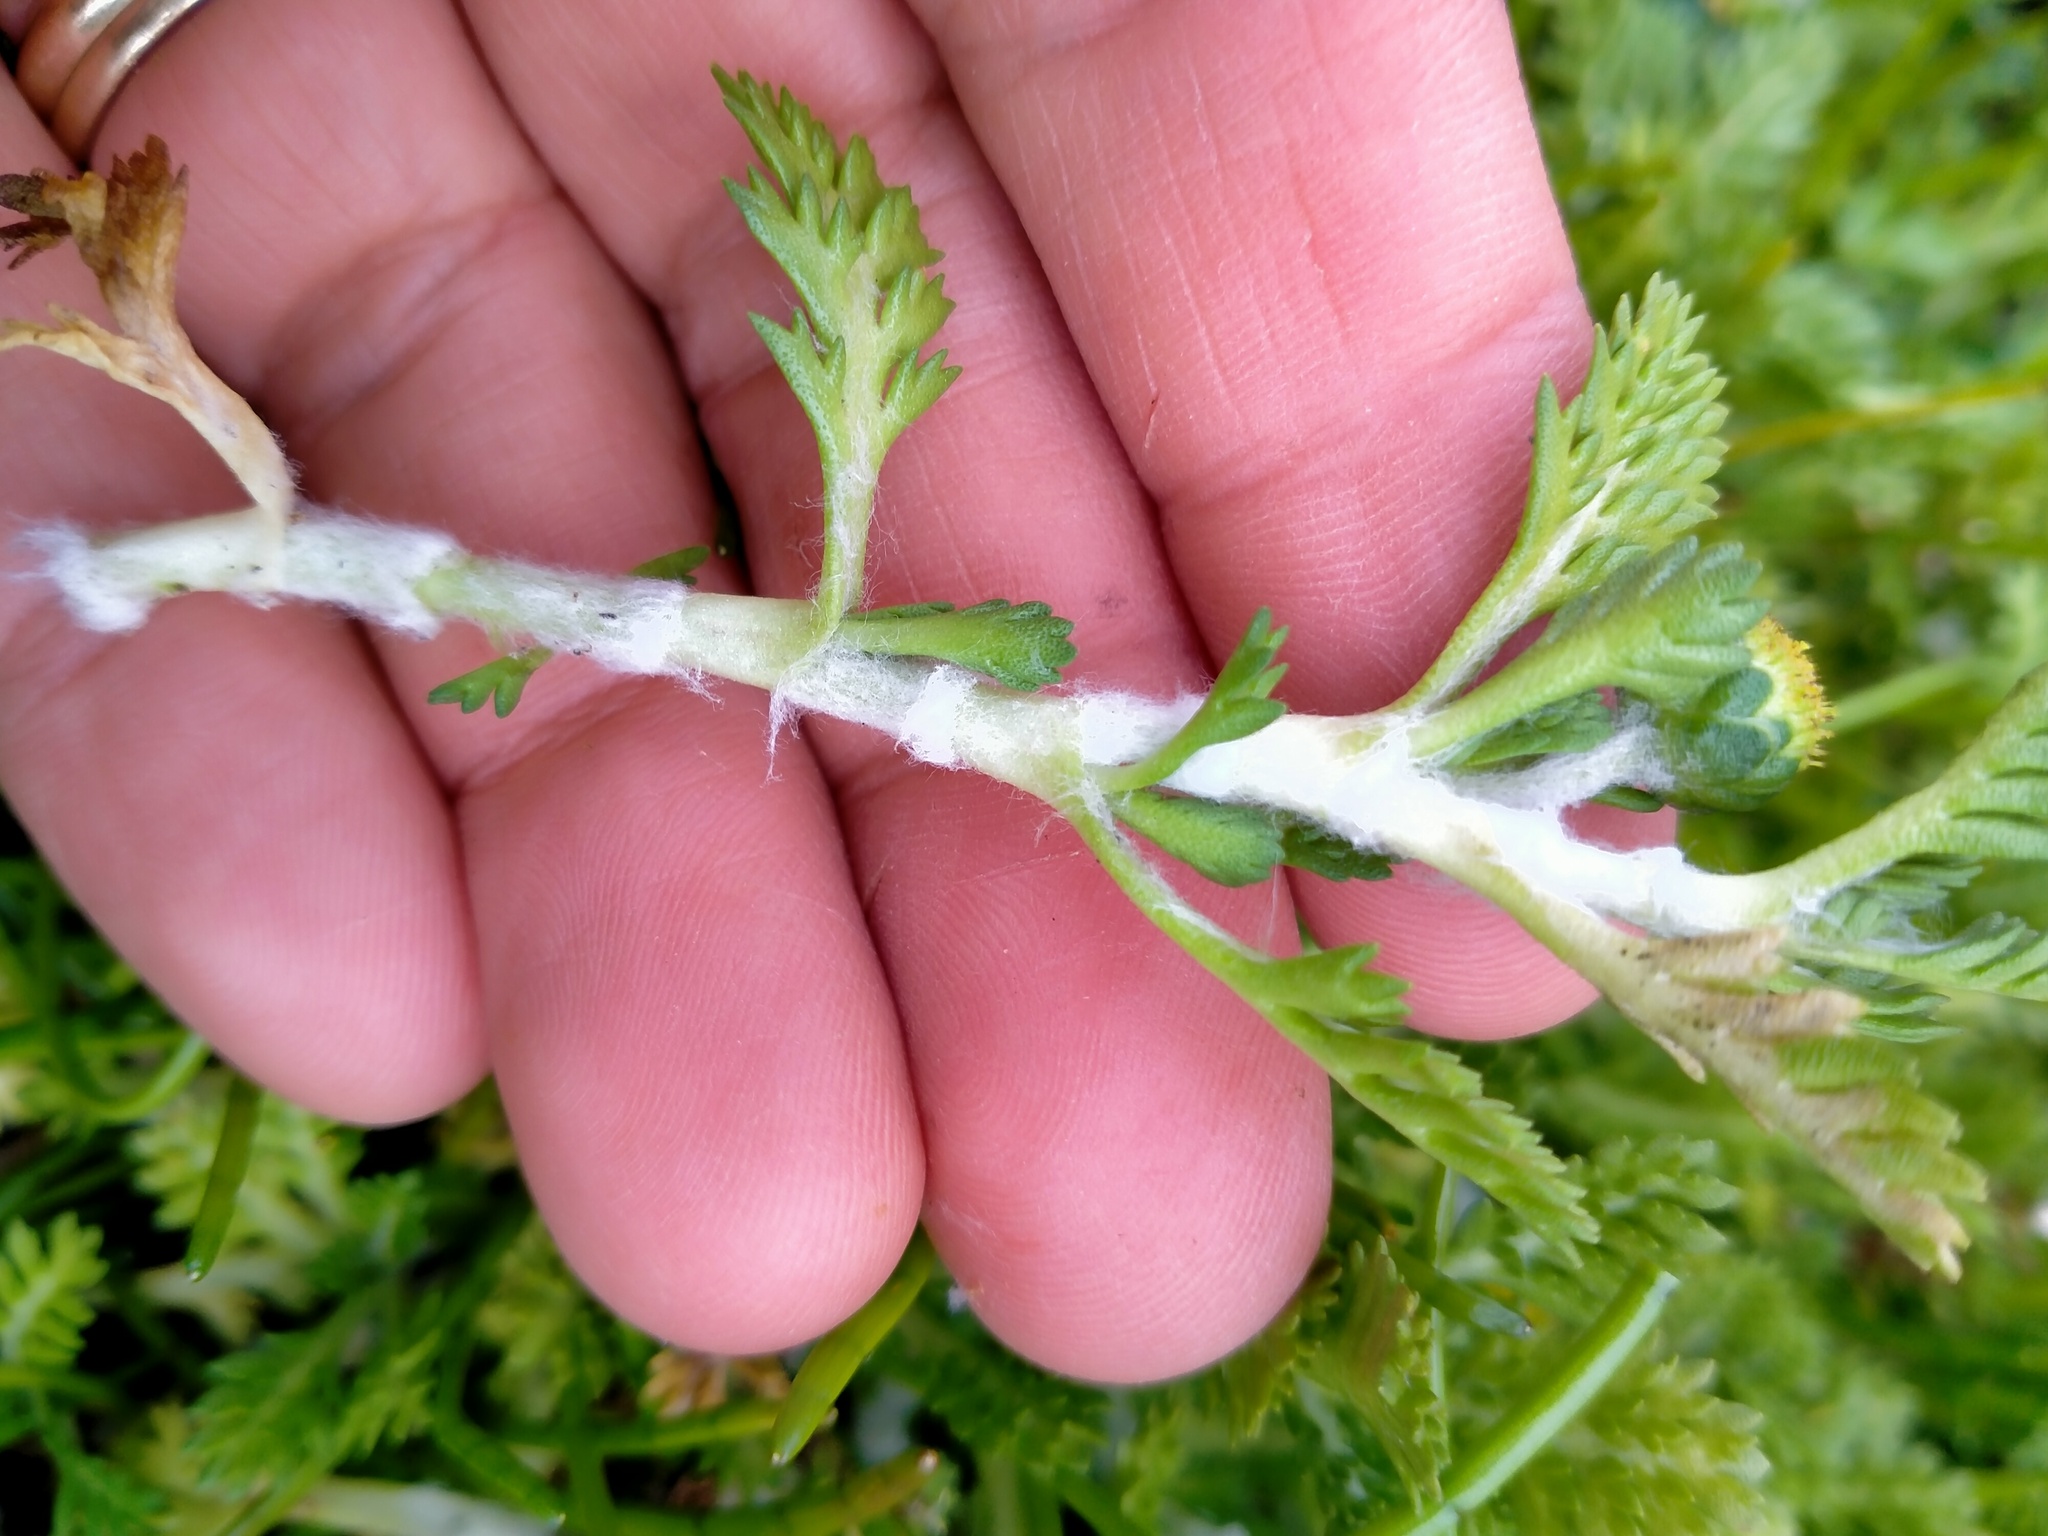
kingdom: Plantae
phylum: Tracheophyta
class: Magnoliopsida
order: Asterales
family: Asteraceae
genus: Leptinella
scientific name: Leptinella lanata
